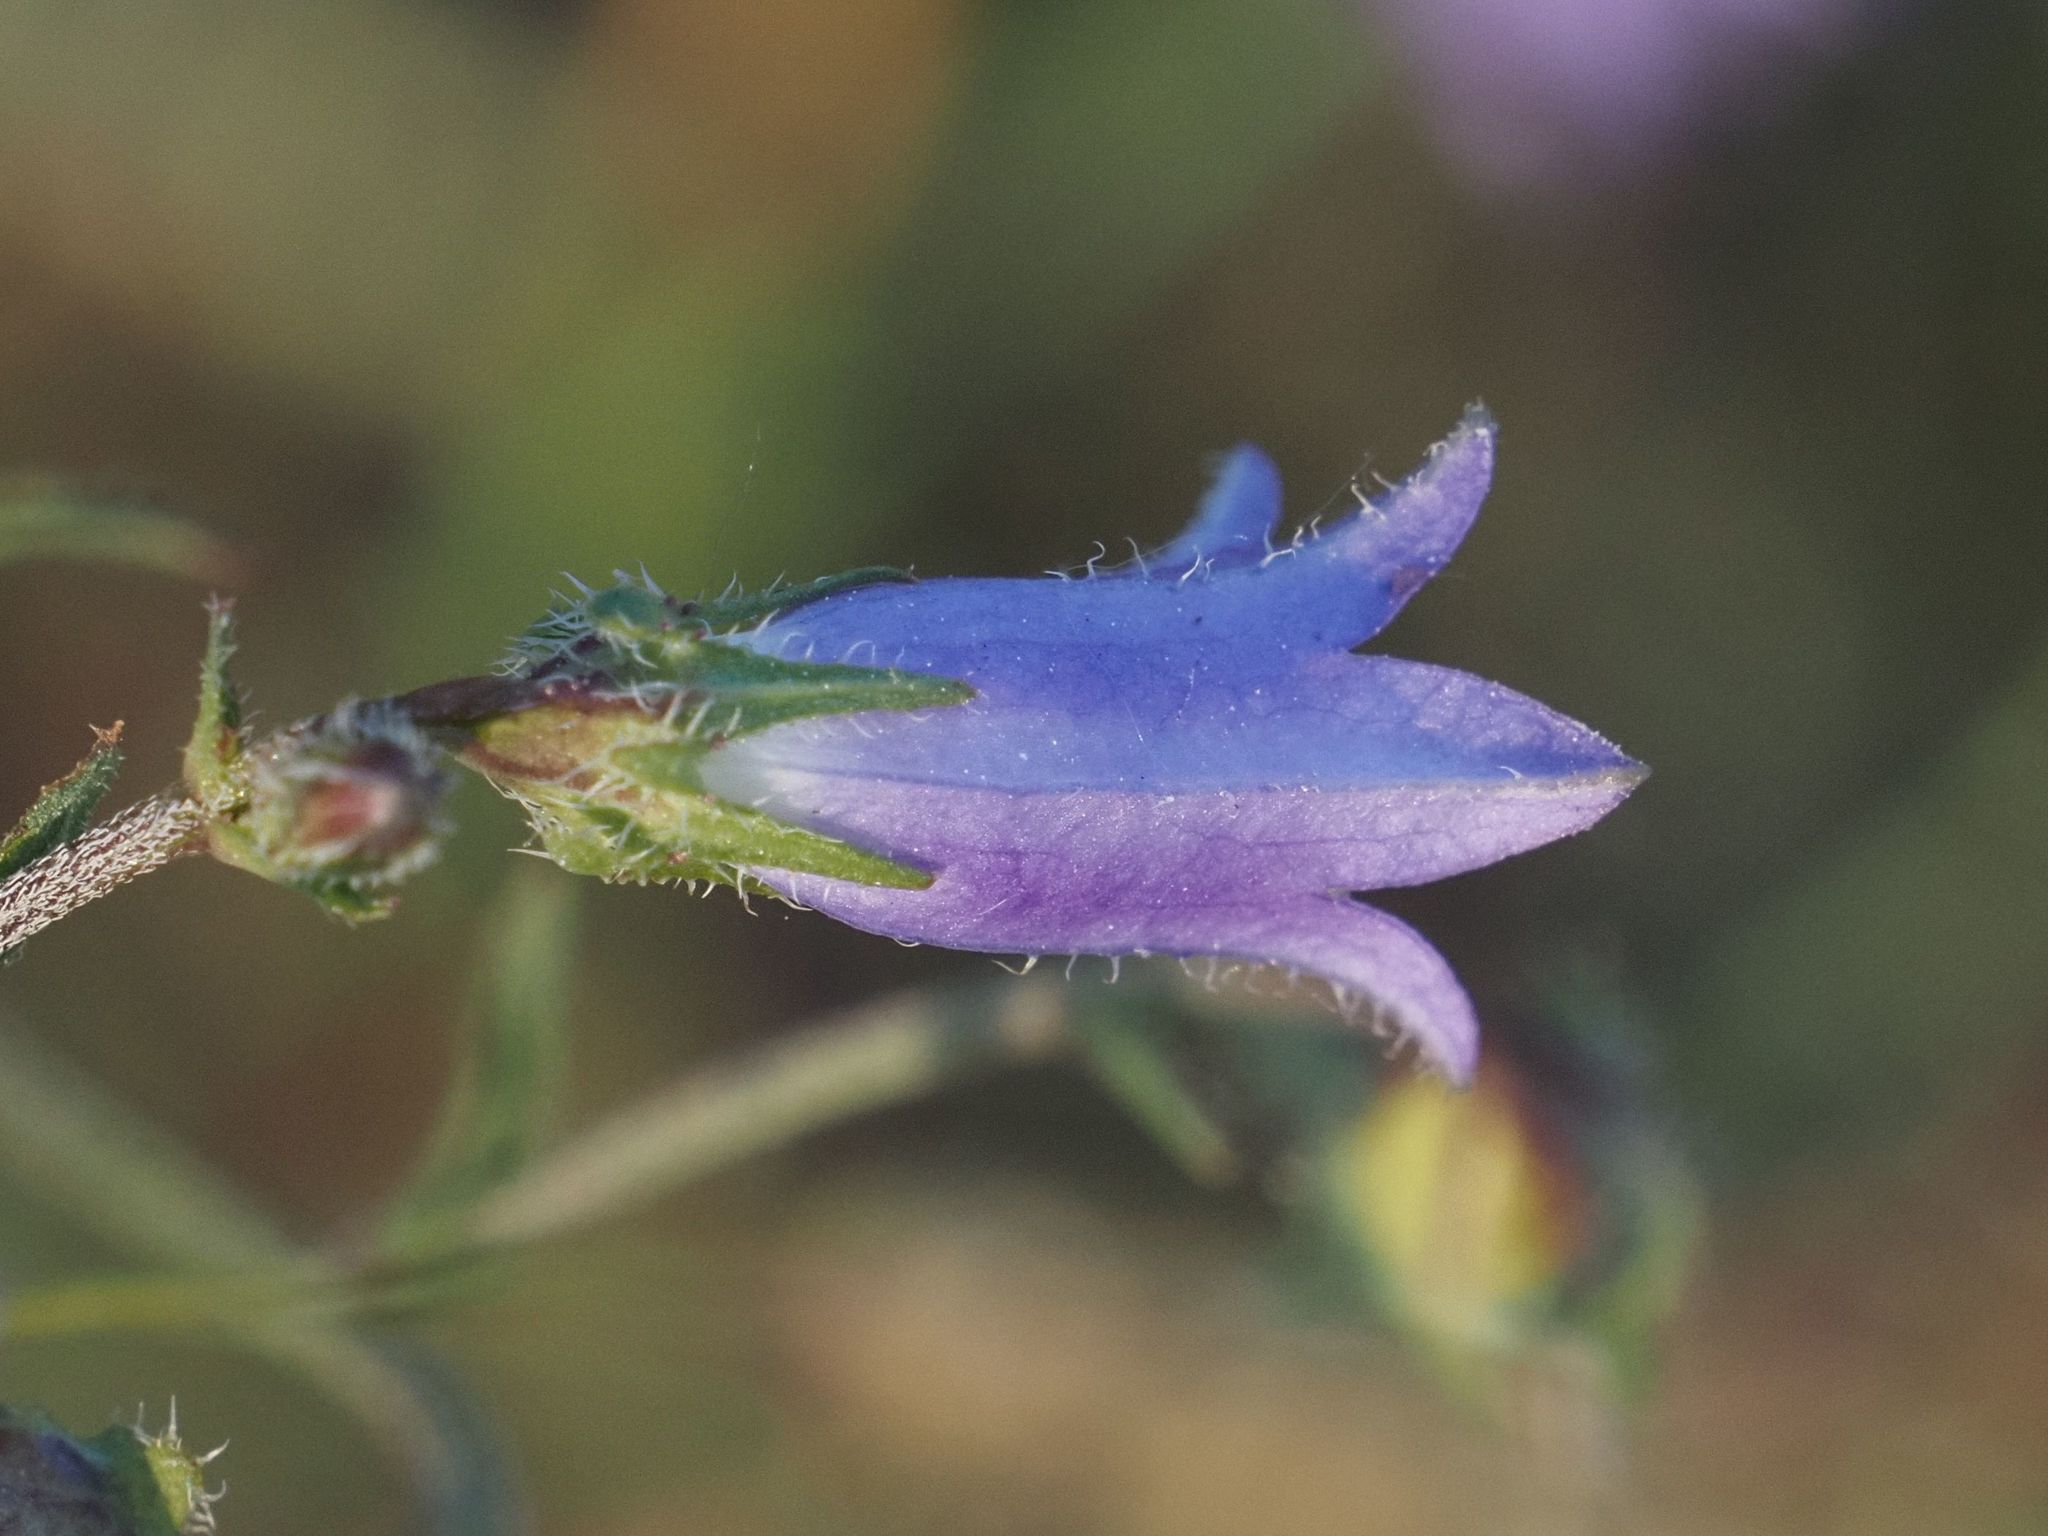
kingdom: Plantae
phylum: Tracheophyta
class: Magnoliopsida
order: Asterales
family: Campanulaceae
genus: Campanula
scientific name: Campanula sibirica
